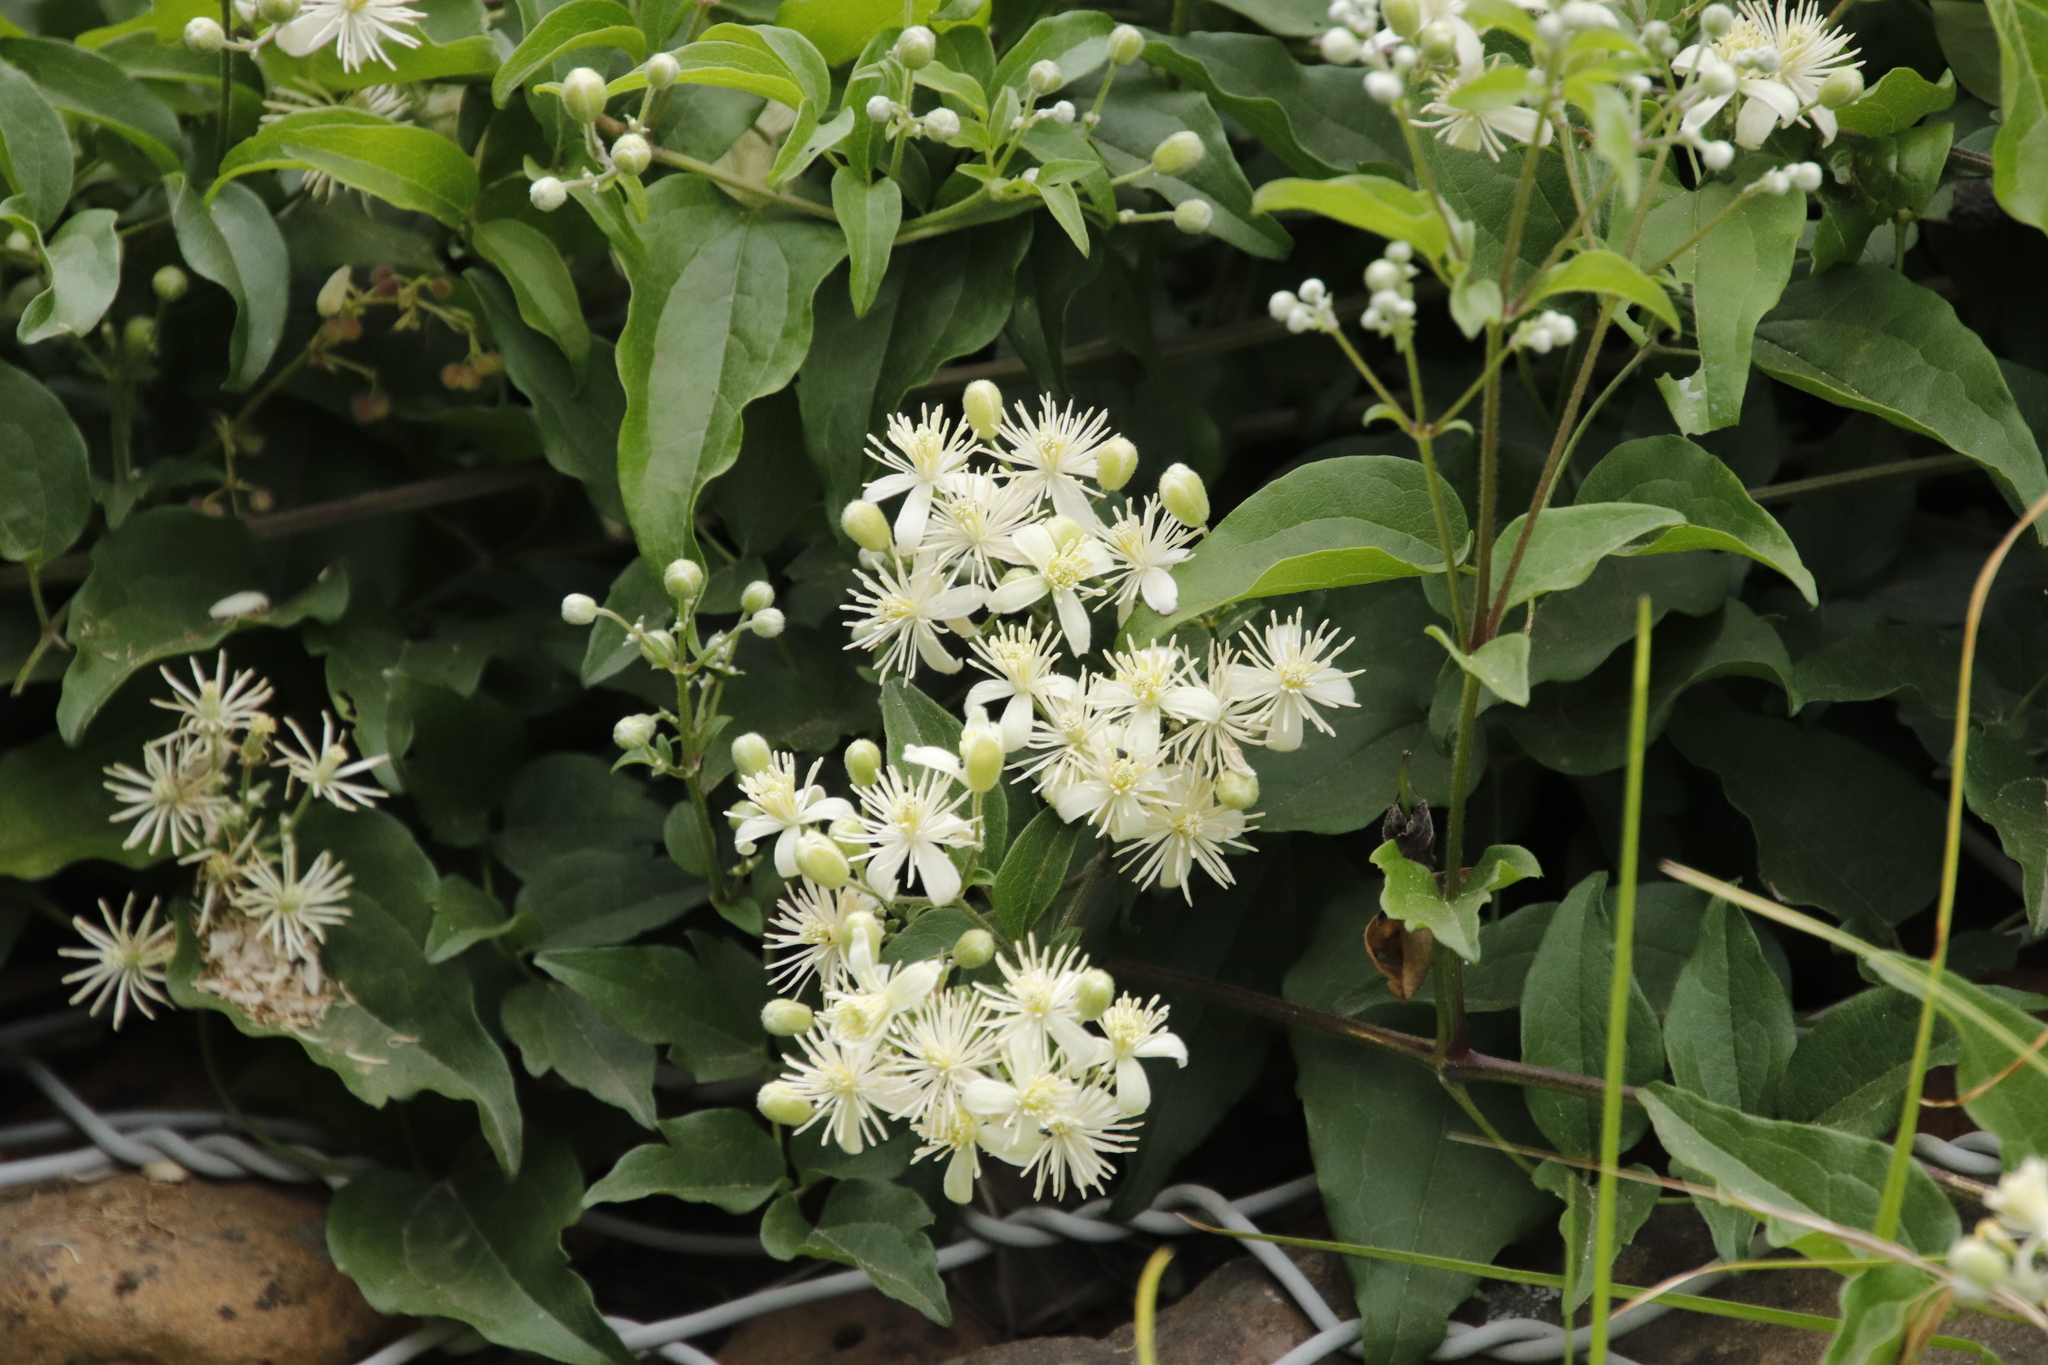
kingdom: Plantae
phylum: Tracheophyta
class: Magnoliopsida
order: Ranunculales
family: Ranunculaceae
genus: Clematis
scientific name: Clematis vitalba
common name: Evergreen clematis
